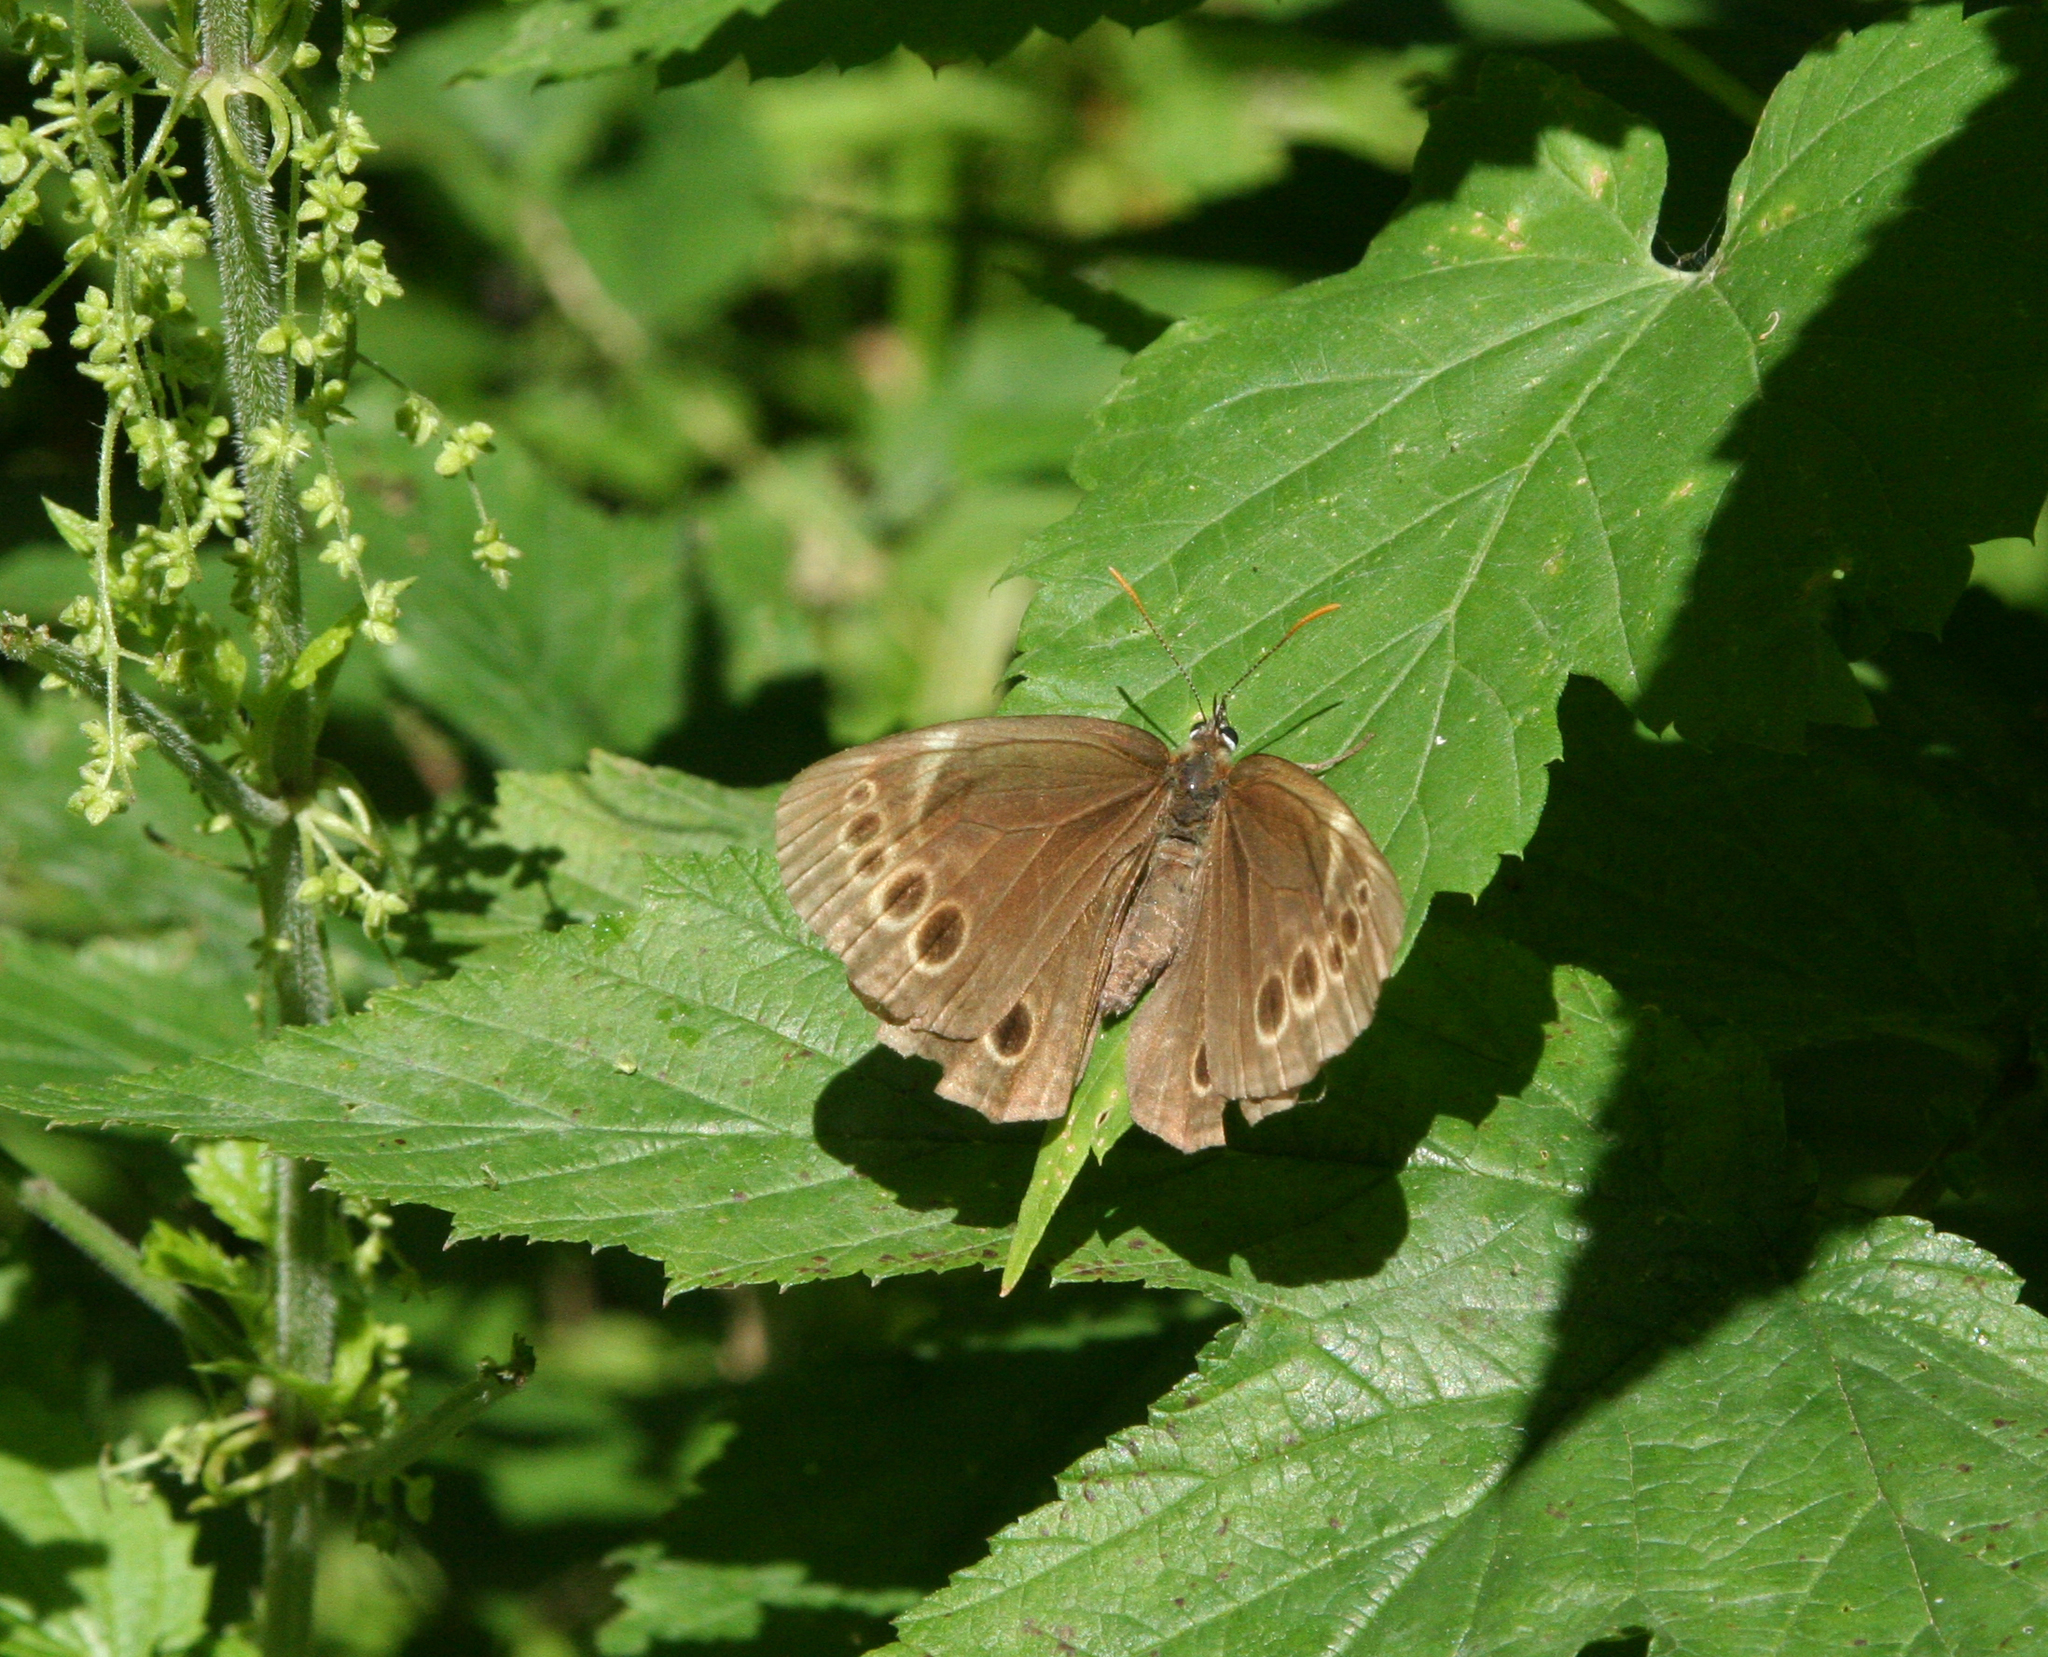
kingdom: Animalia
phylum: Arthropoda
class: Insecta
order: Lepidoptera
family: Nymphalidae
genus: Pararge
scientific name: Pararge Lopinga achine
